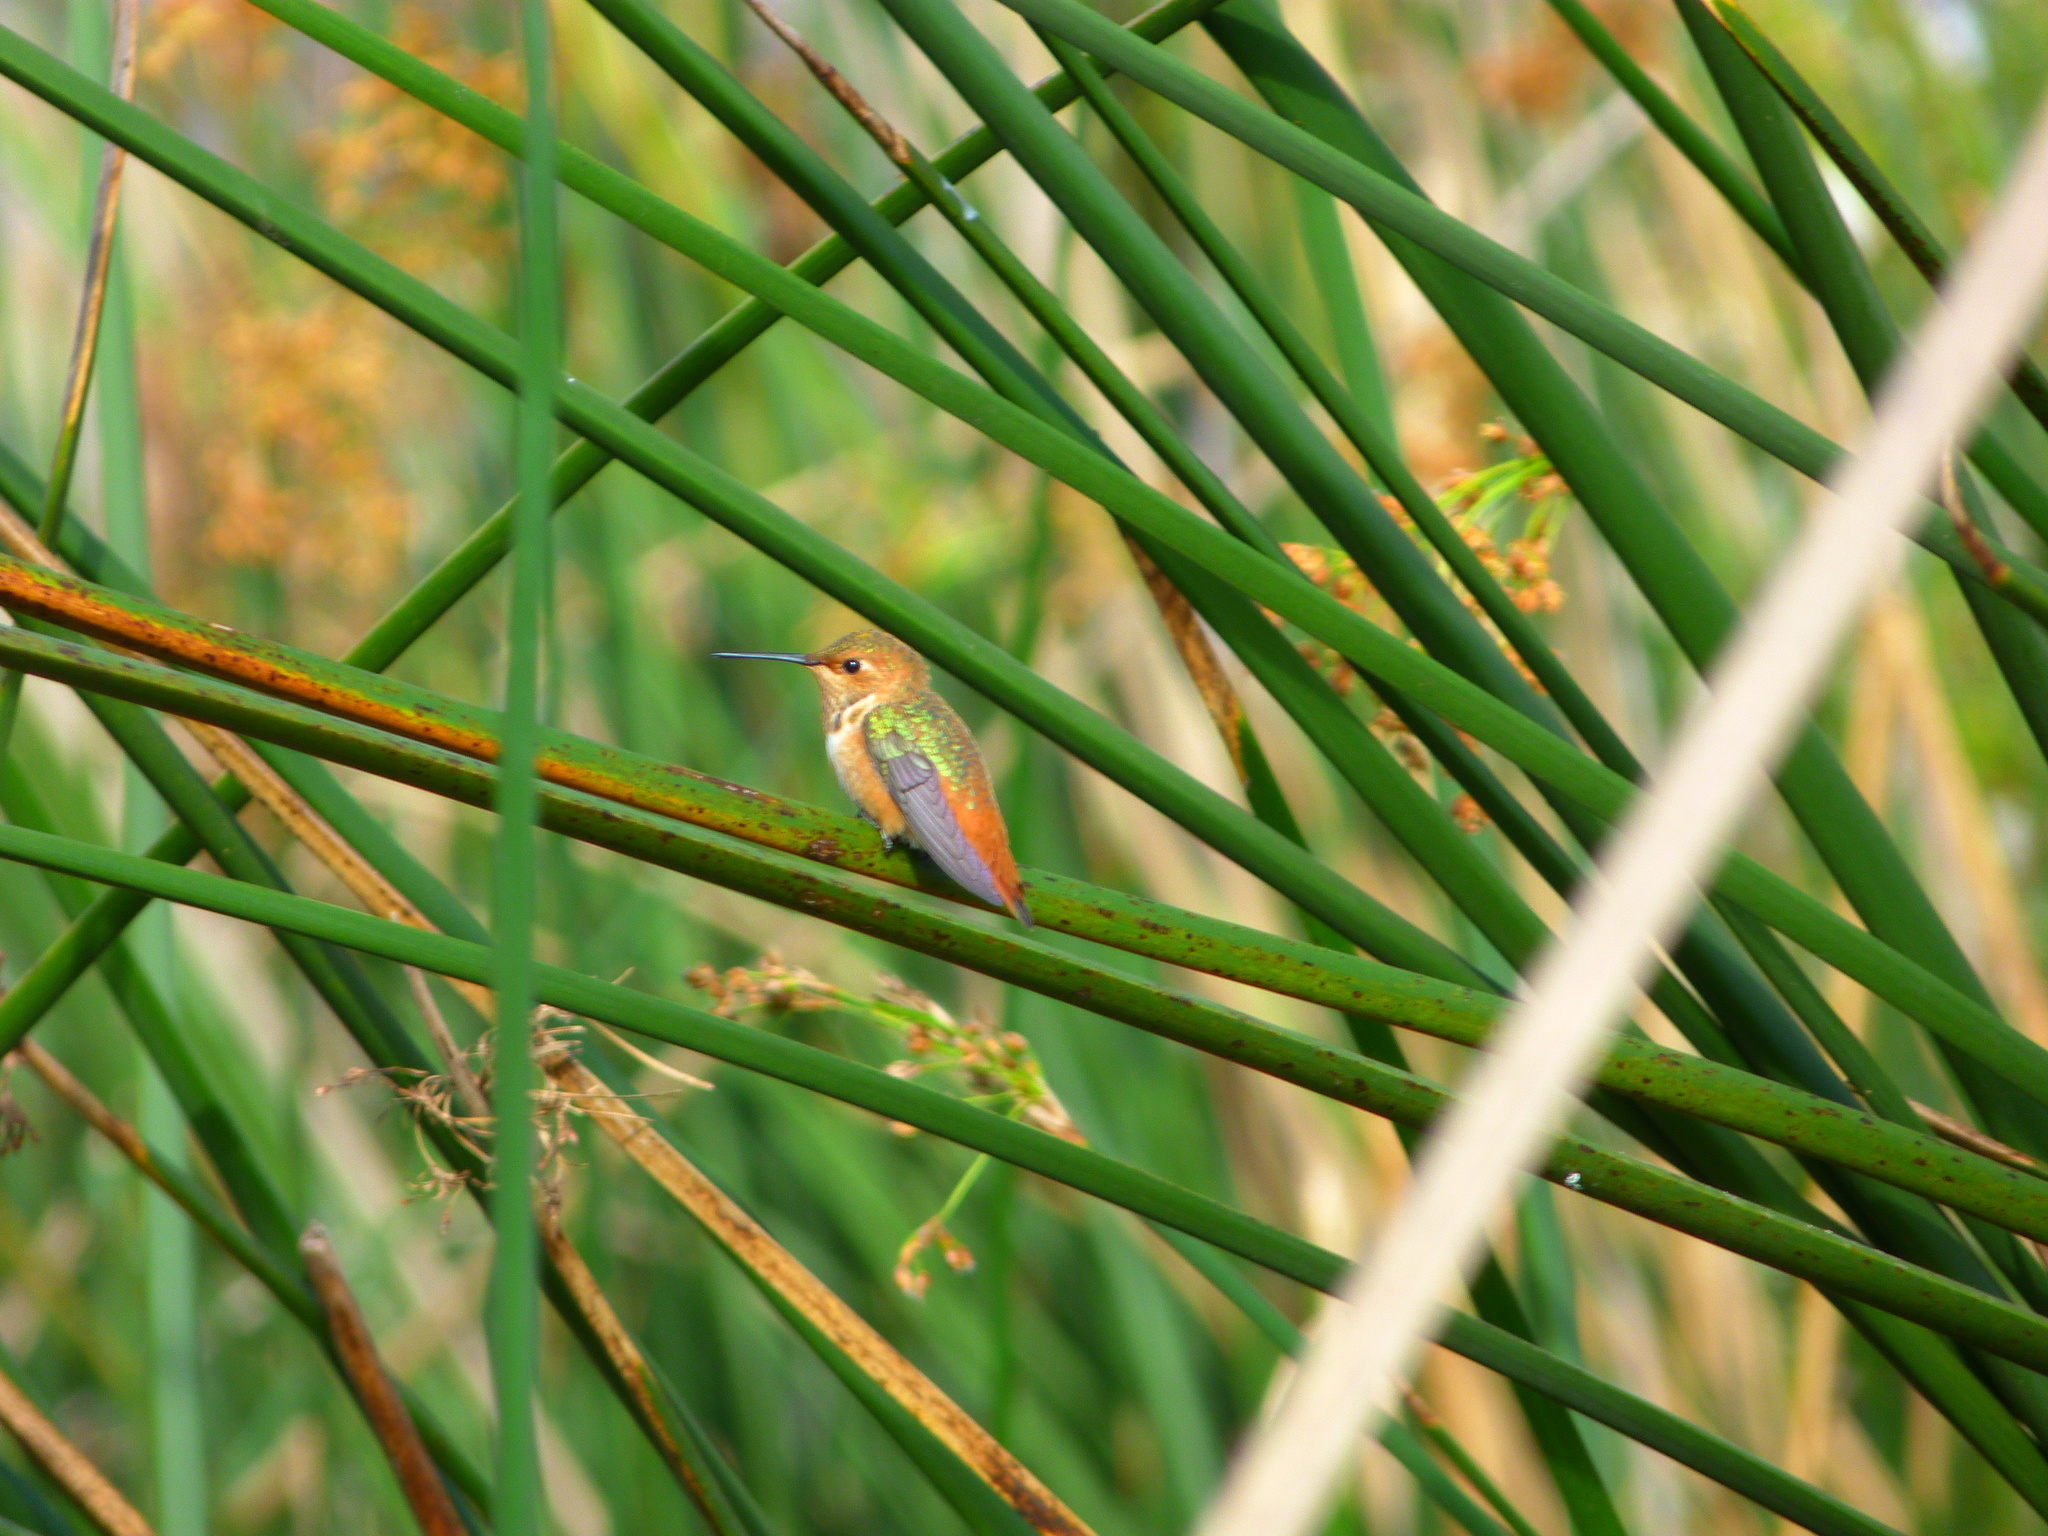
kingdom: Animalia
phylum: Chordata
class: Aves
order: Apodiformes
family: Trochilidae
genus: Selasphorus
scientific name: Selasphorus
